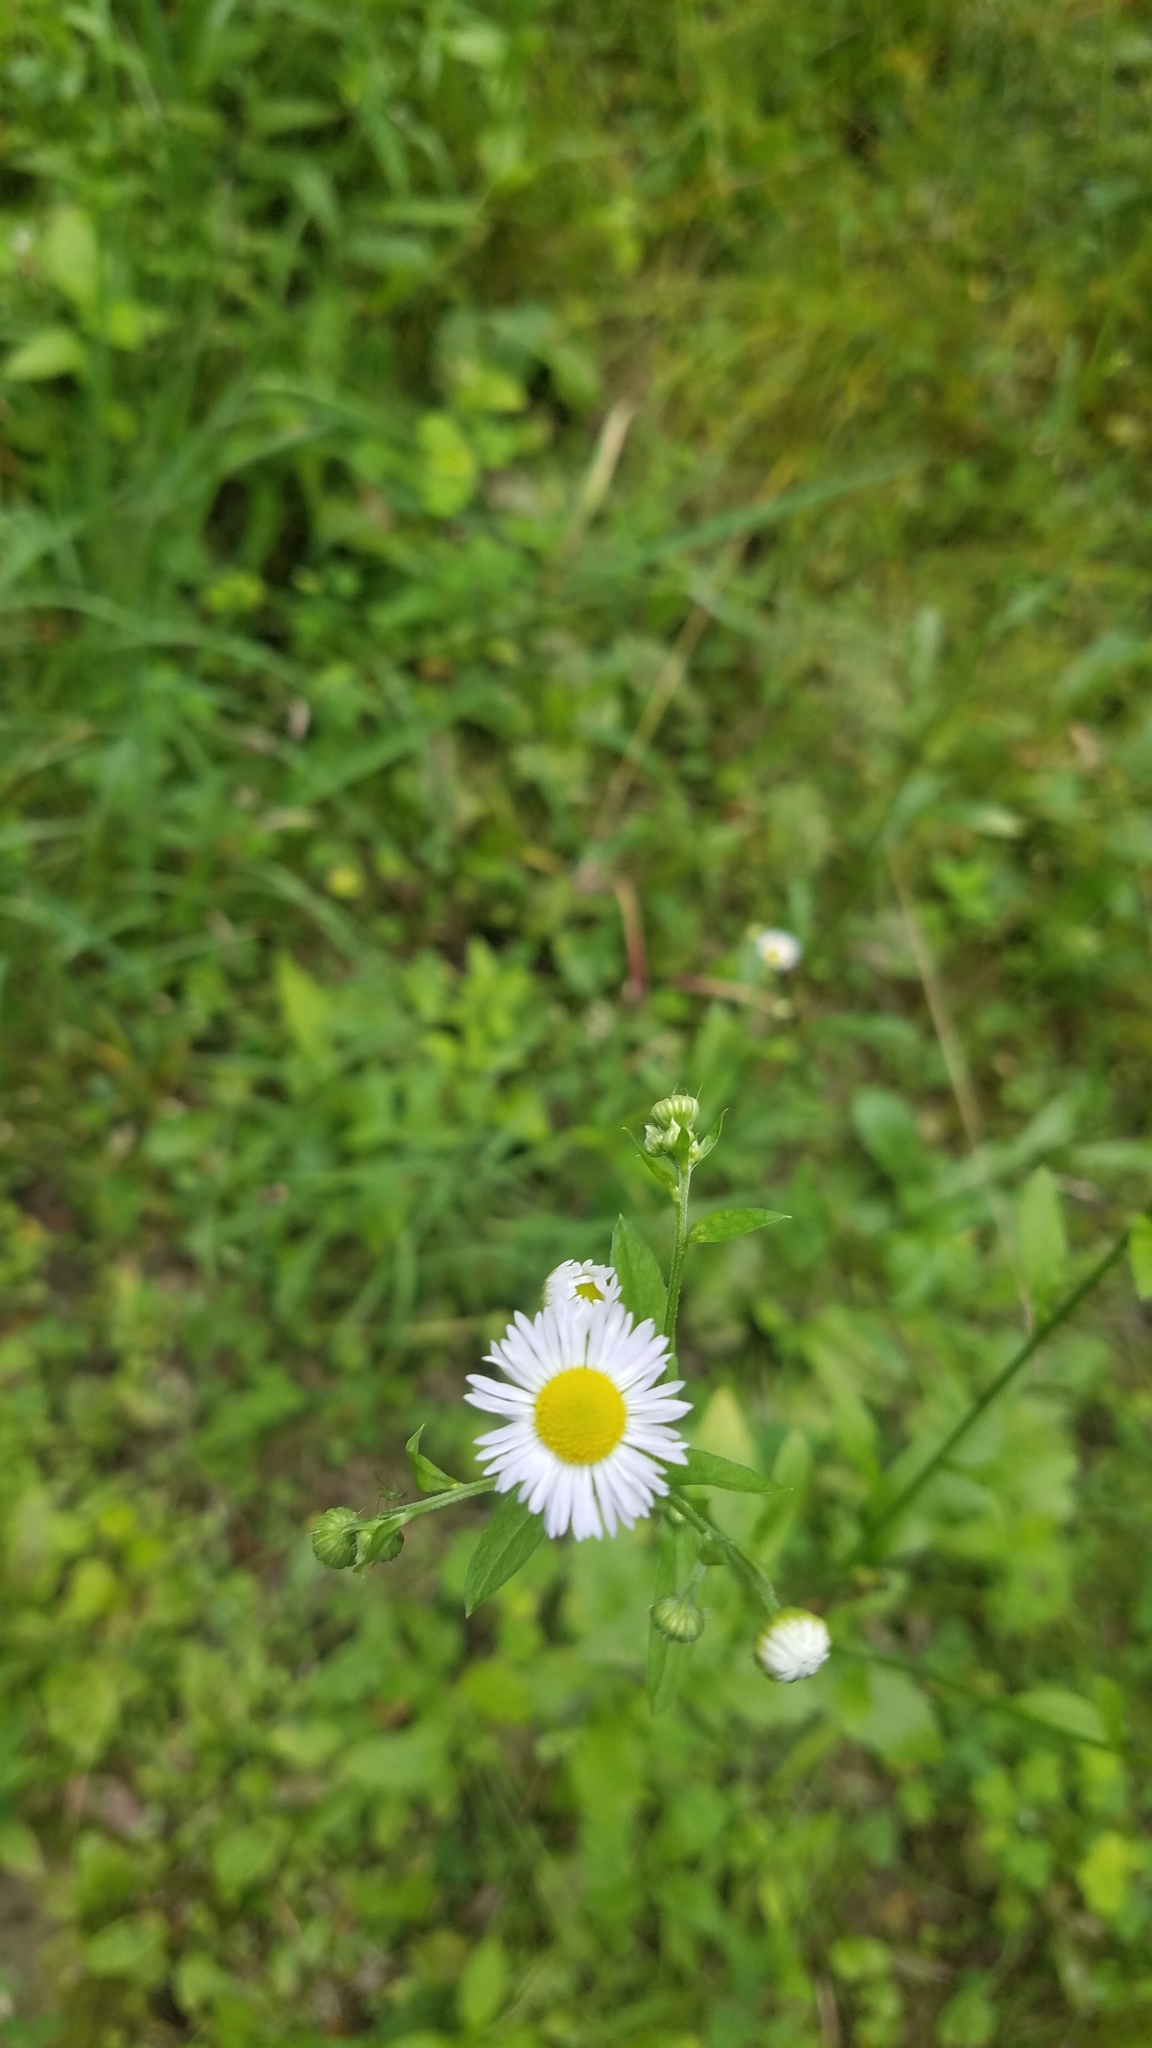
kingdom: Plantae
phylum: Tracheophyta
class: Magnoliopsida
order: Asterales
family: Asteraceae
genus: Erigeron
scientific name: Erigeron strigosus
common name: Common eastern fleabane
